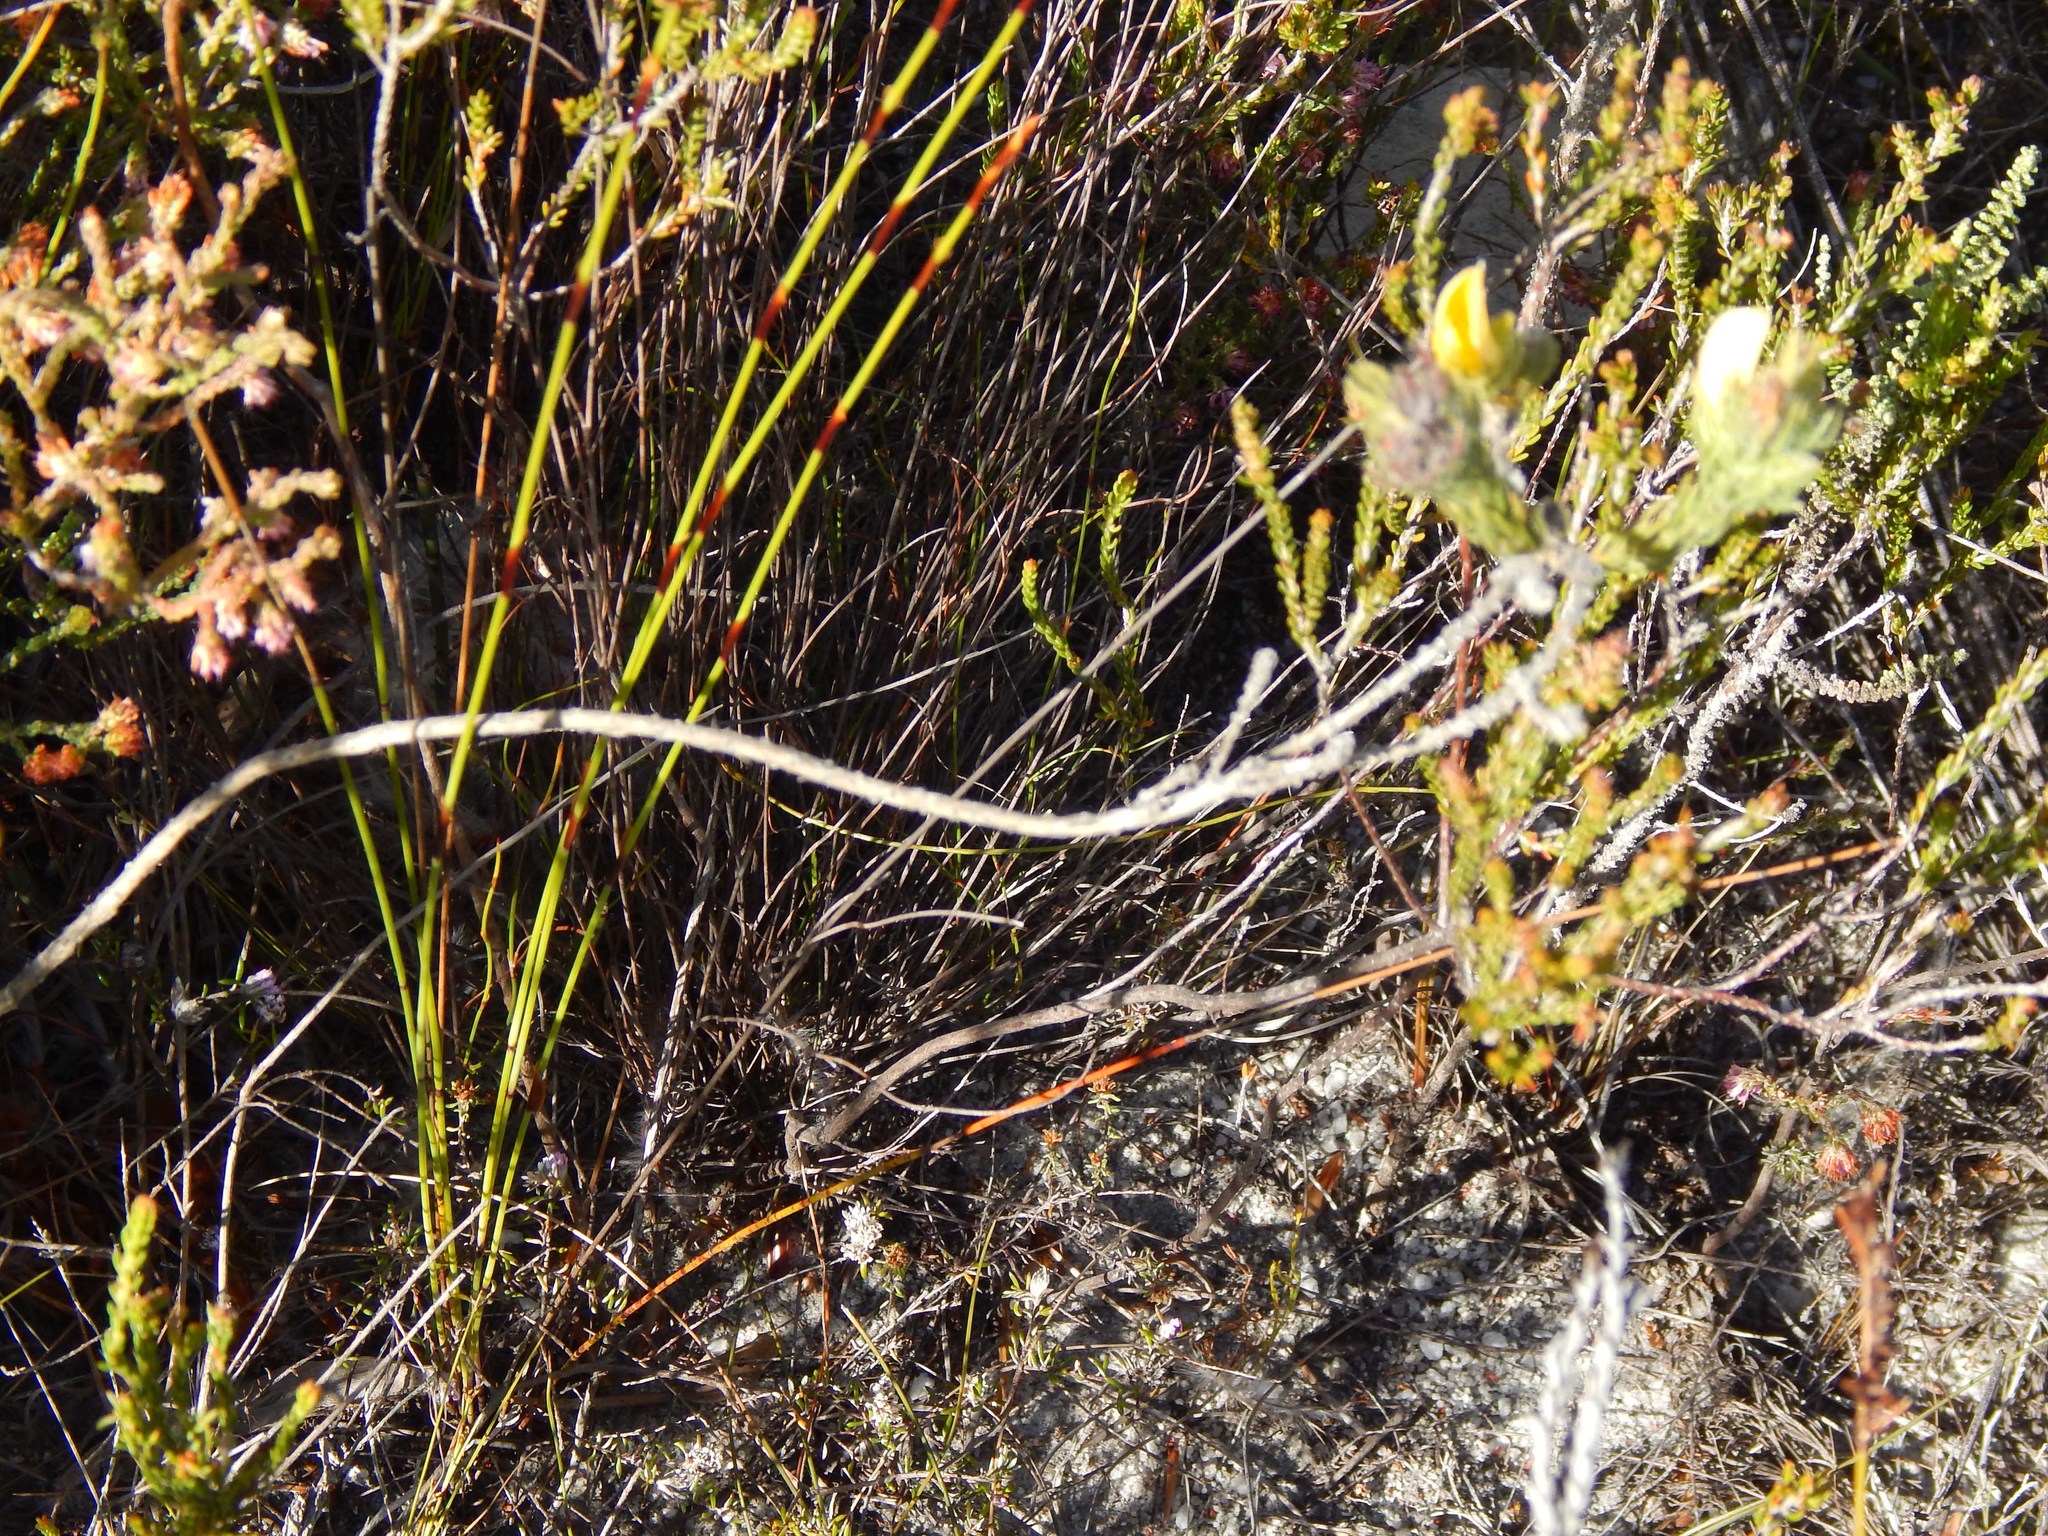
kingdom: Plantae
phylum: Tracheophyta
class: Magnoliopsida
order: Fabales
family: Fabaceae
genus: Aspalathus
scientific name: Aspalathus ciliaris
